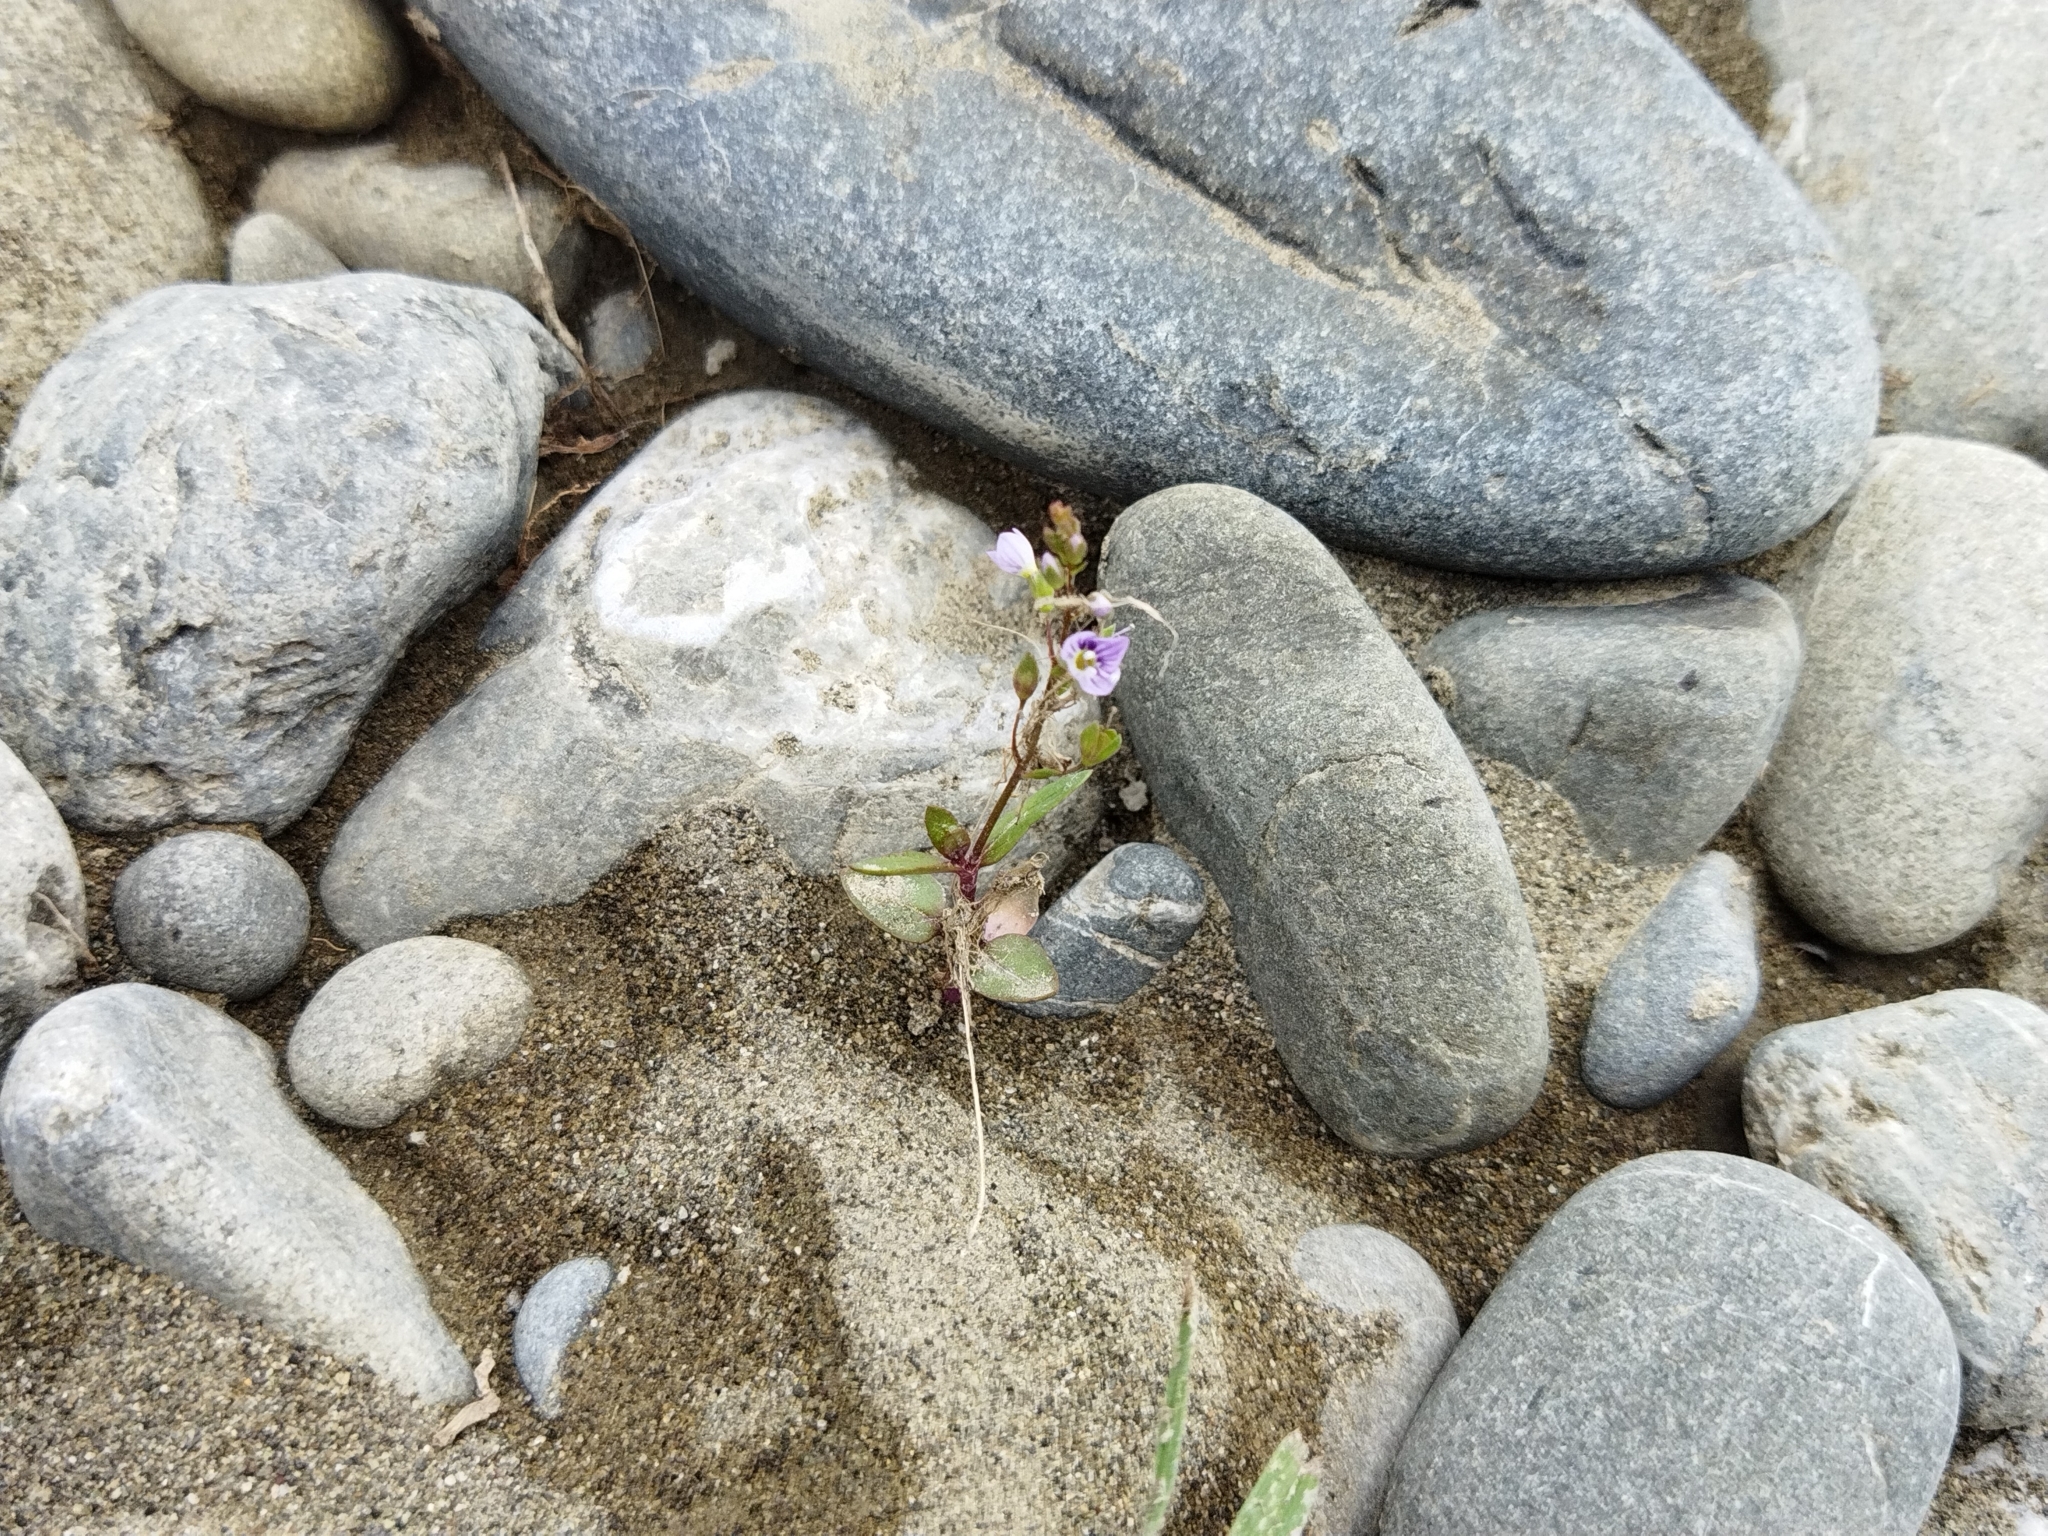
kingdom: Plantae
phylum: Tracheophyta
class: Magnoliopsida
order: Lamiales
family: Plantaginaceae
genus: Veronica
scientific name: Veronica anagallis-aquatica
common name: Water speedwell
